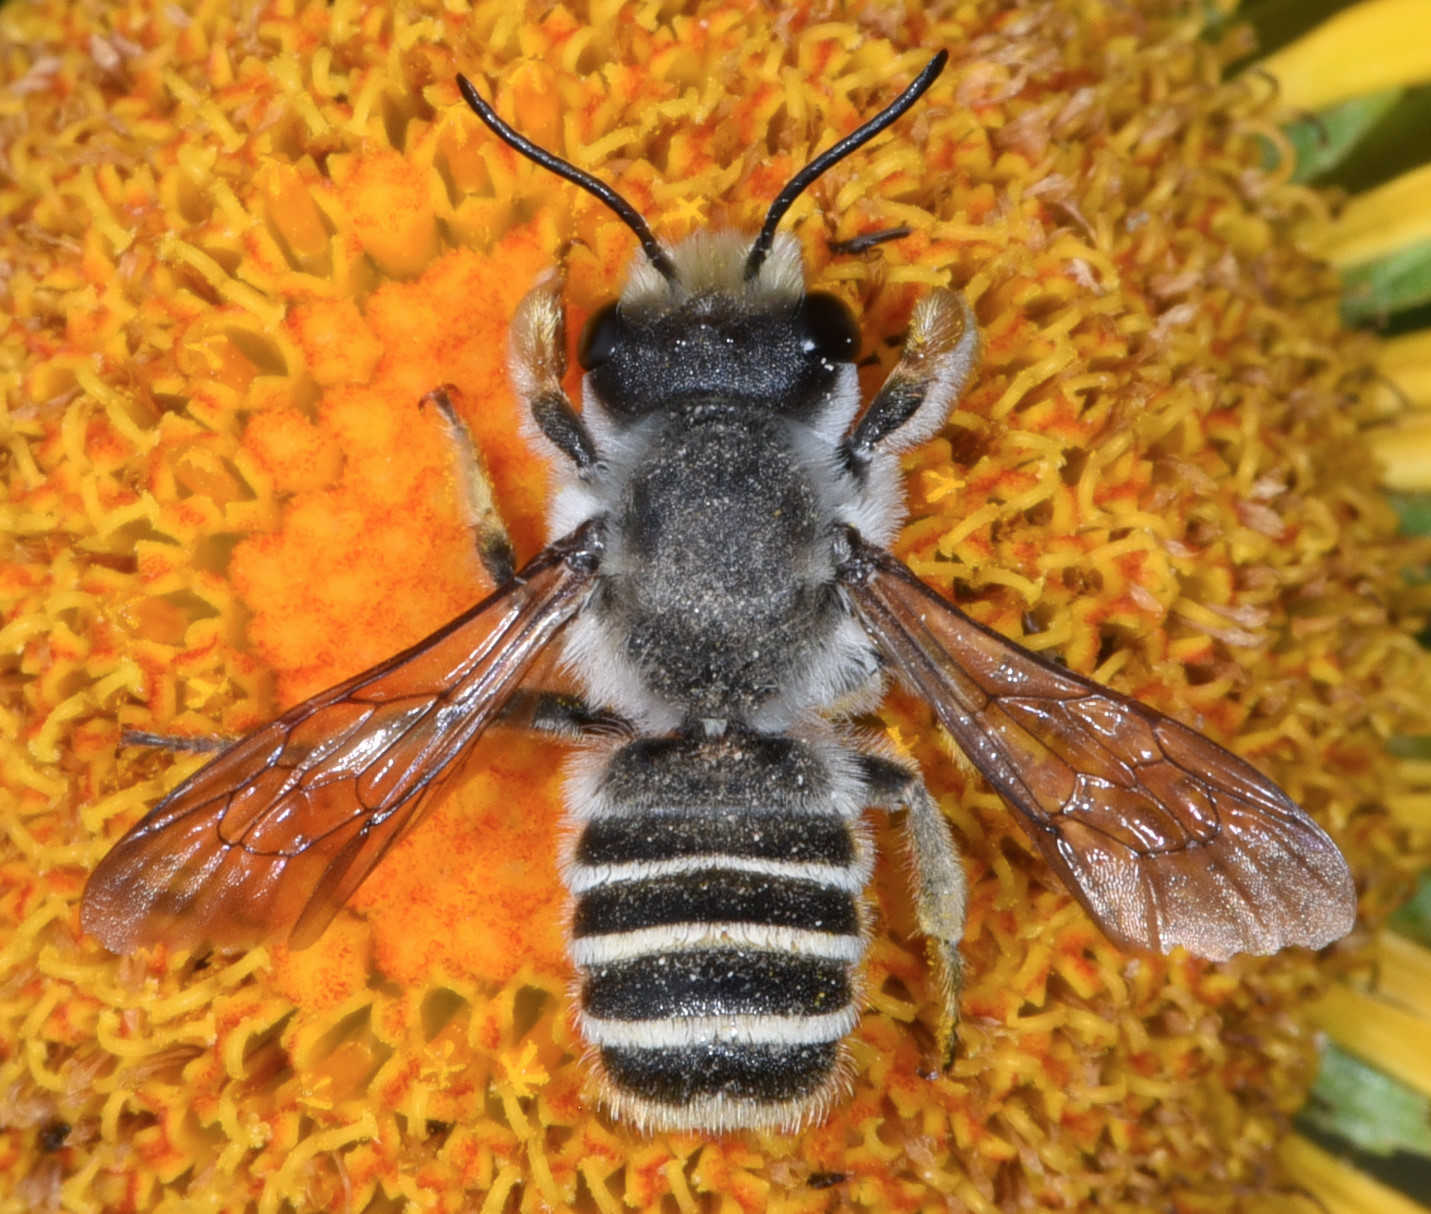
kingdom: Animalia
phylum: Arthropoda
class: Insecta
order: Hymenoptera
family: Megachilidae
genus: Megachile
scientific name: Megachile inimica
